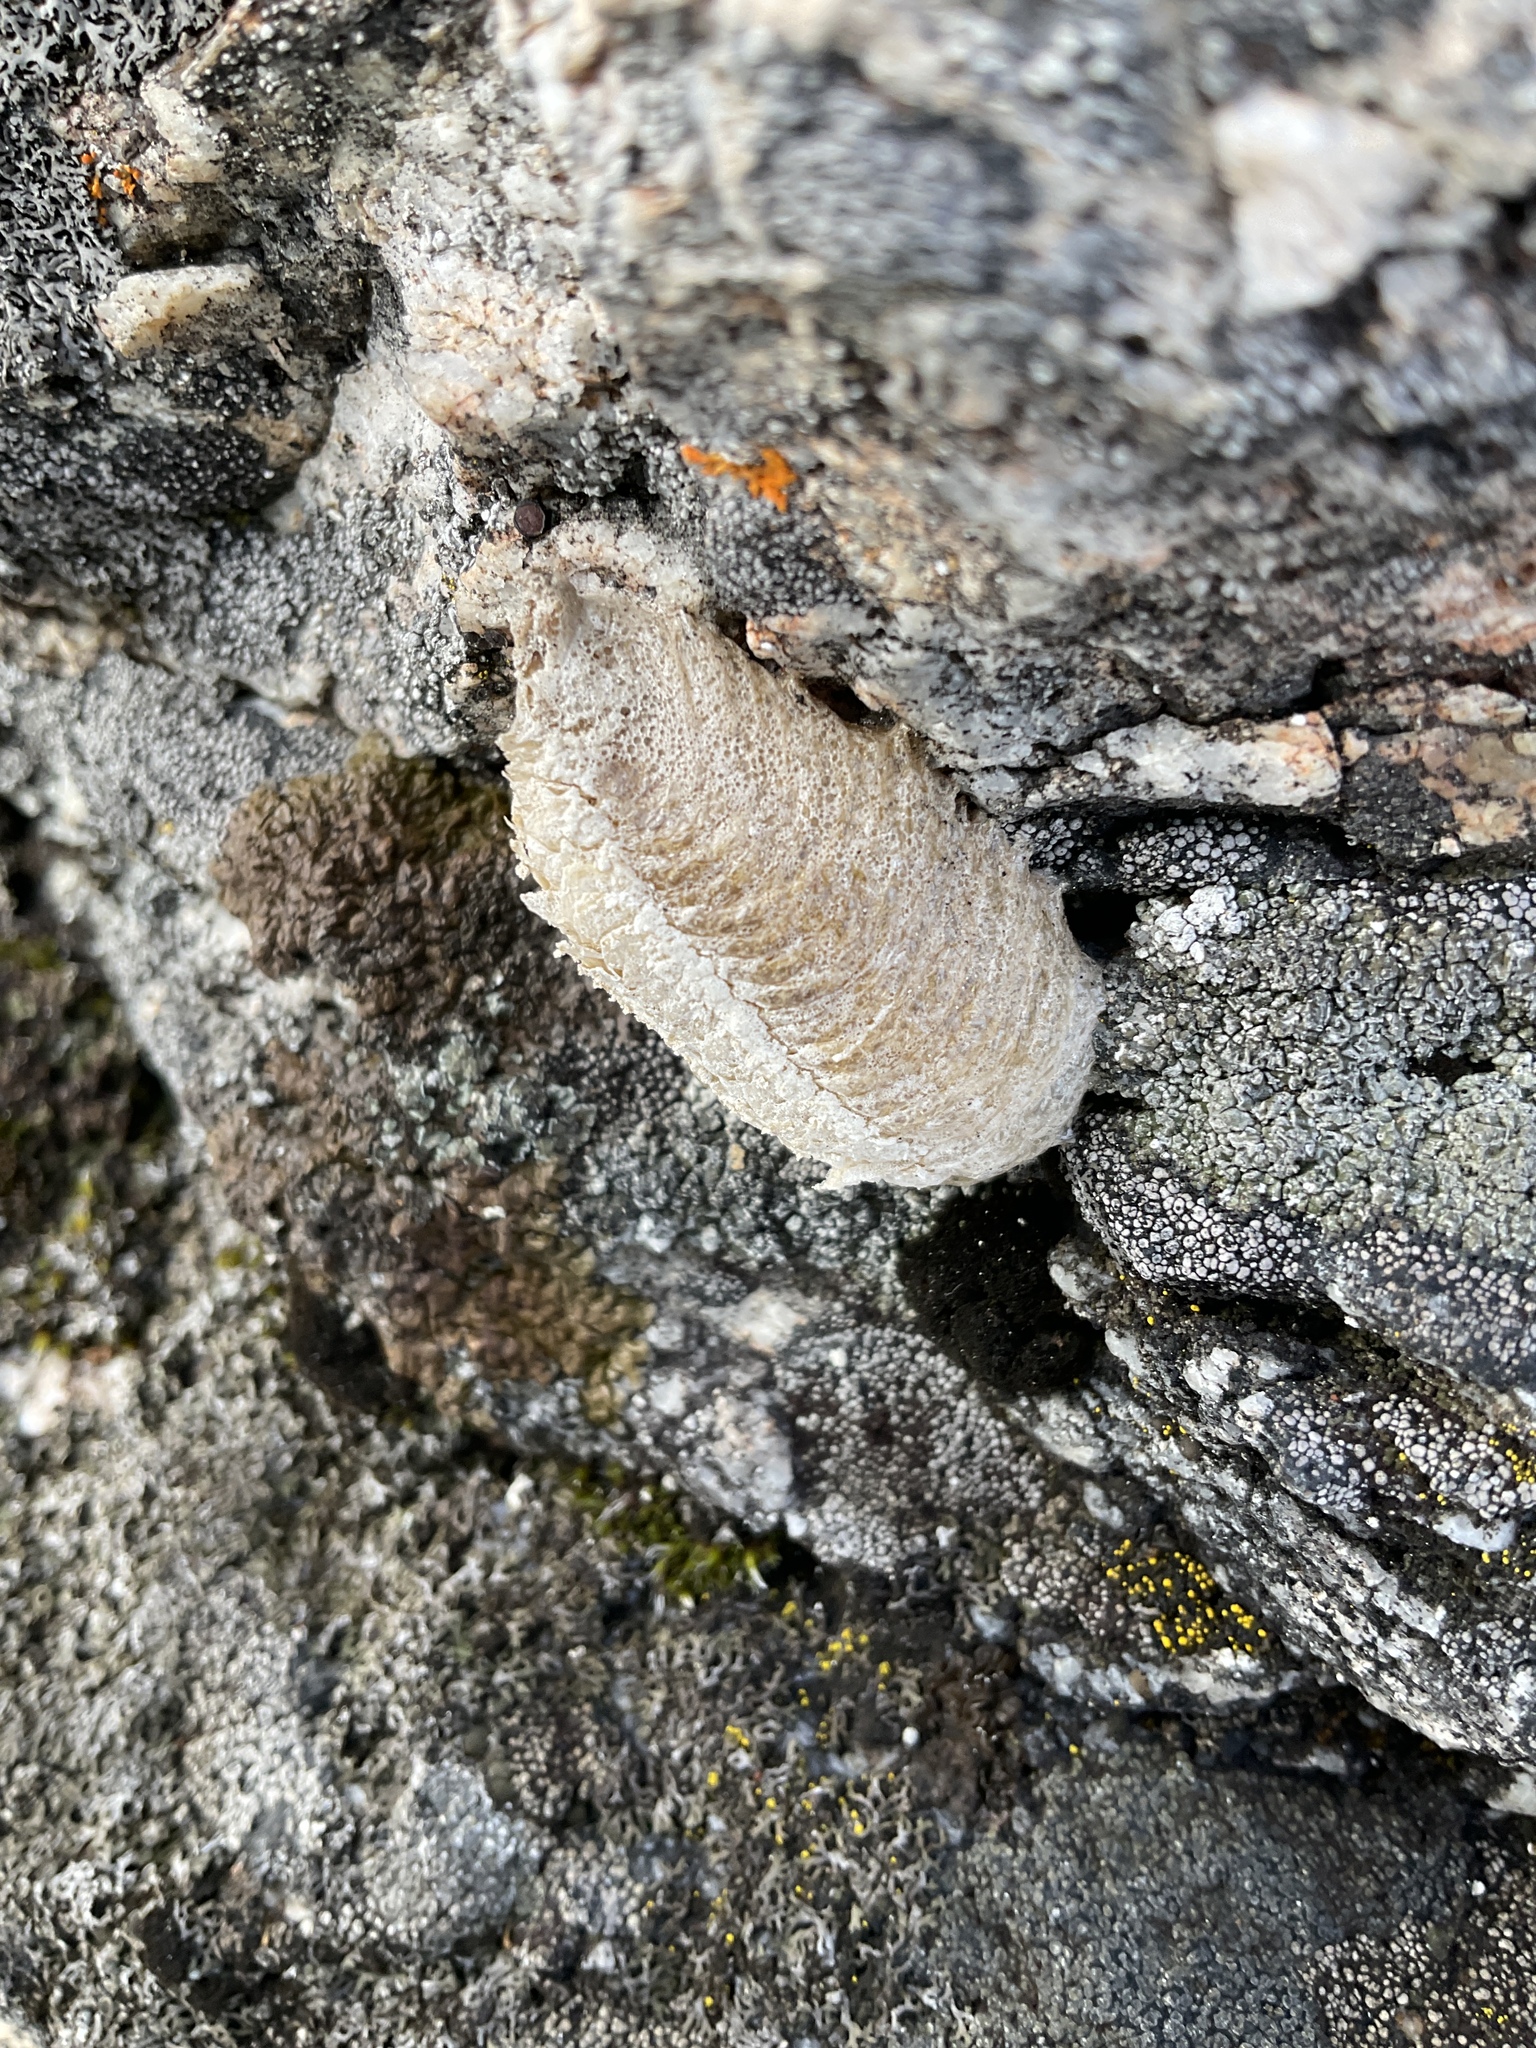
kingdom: Animalia
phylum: Arthropoda
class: Insecta
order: Mantodea
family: Mantidae
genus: Mantis
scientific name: Mantis religiosa
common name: Praying mantis
